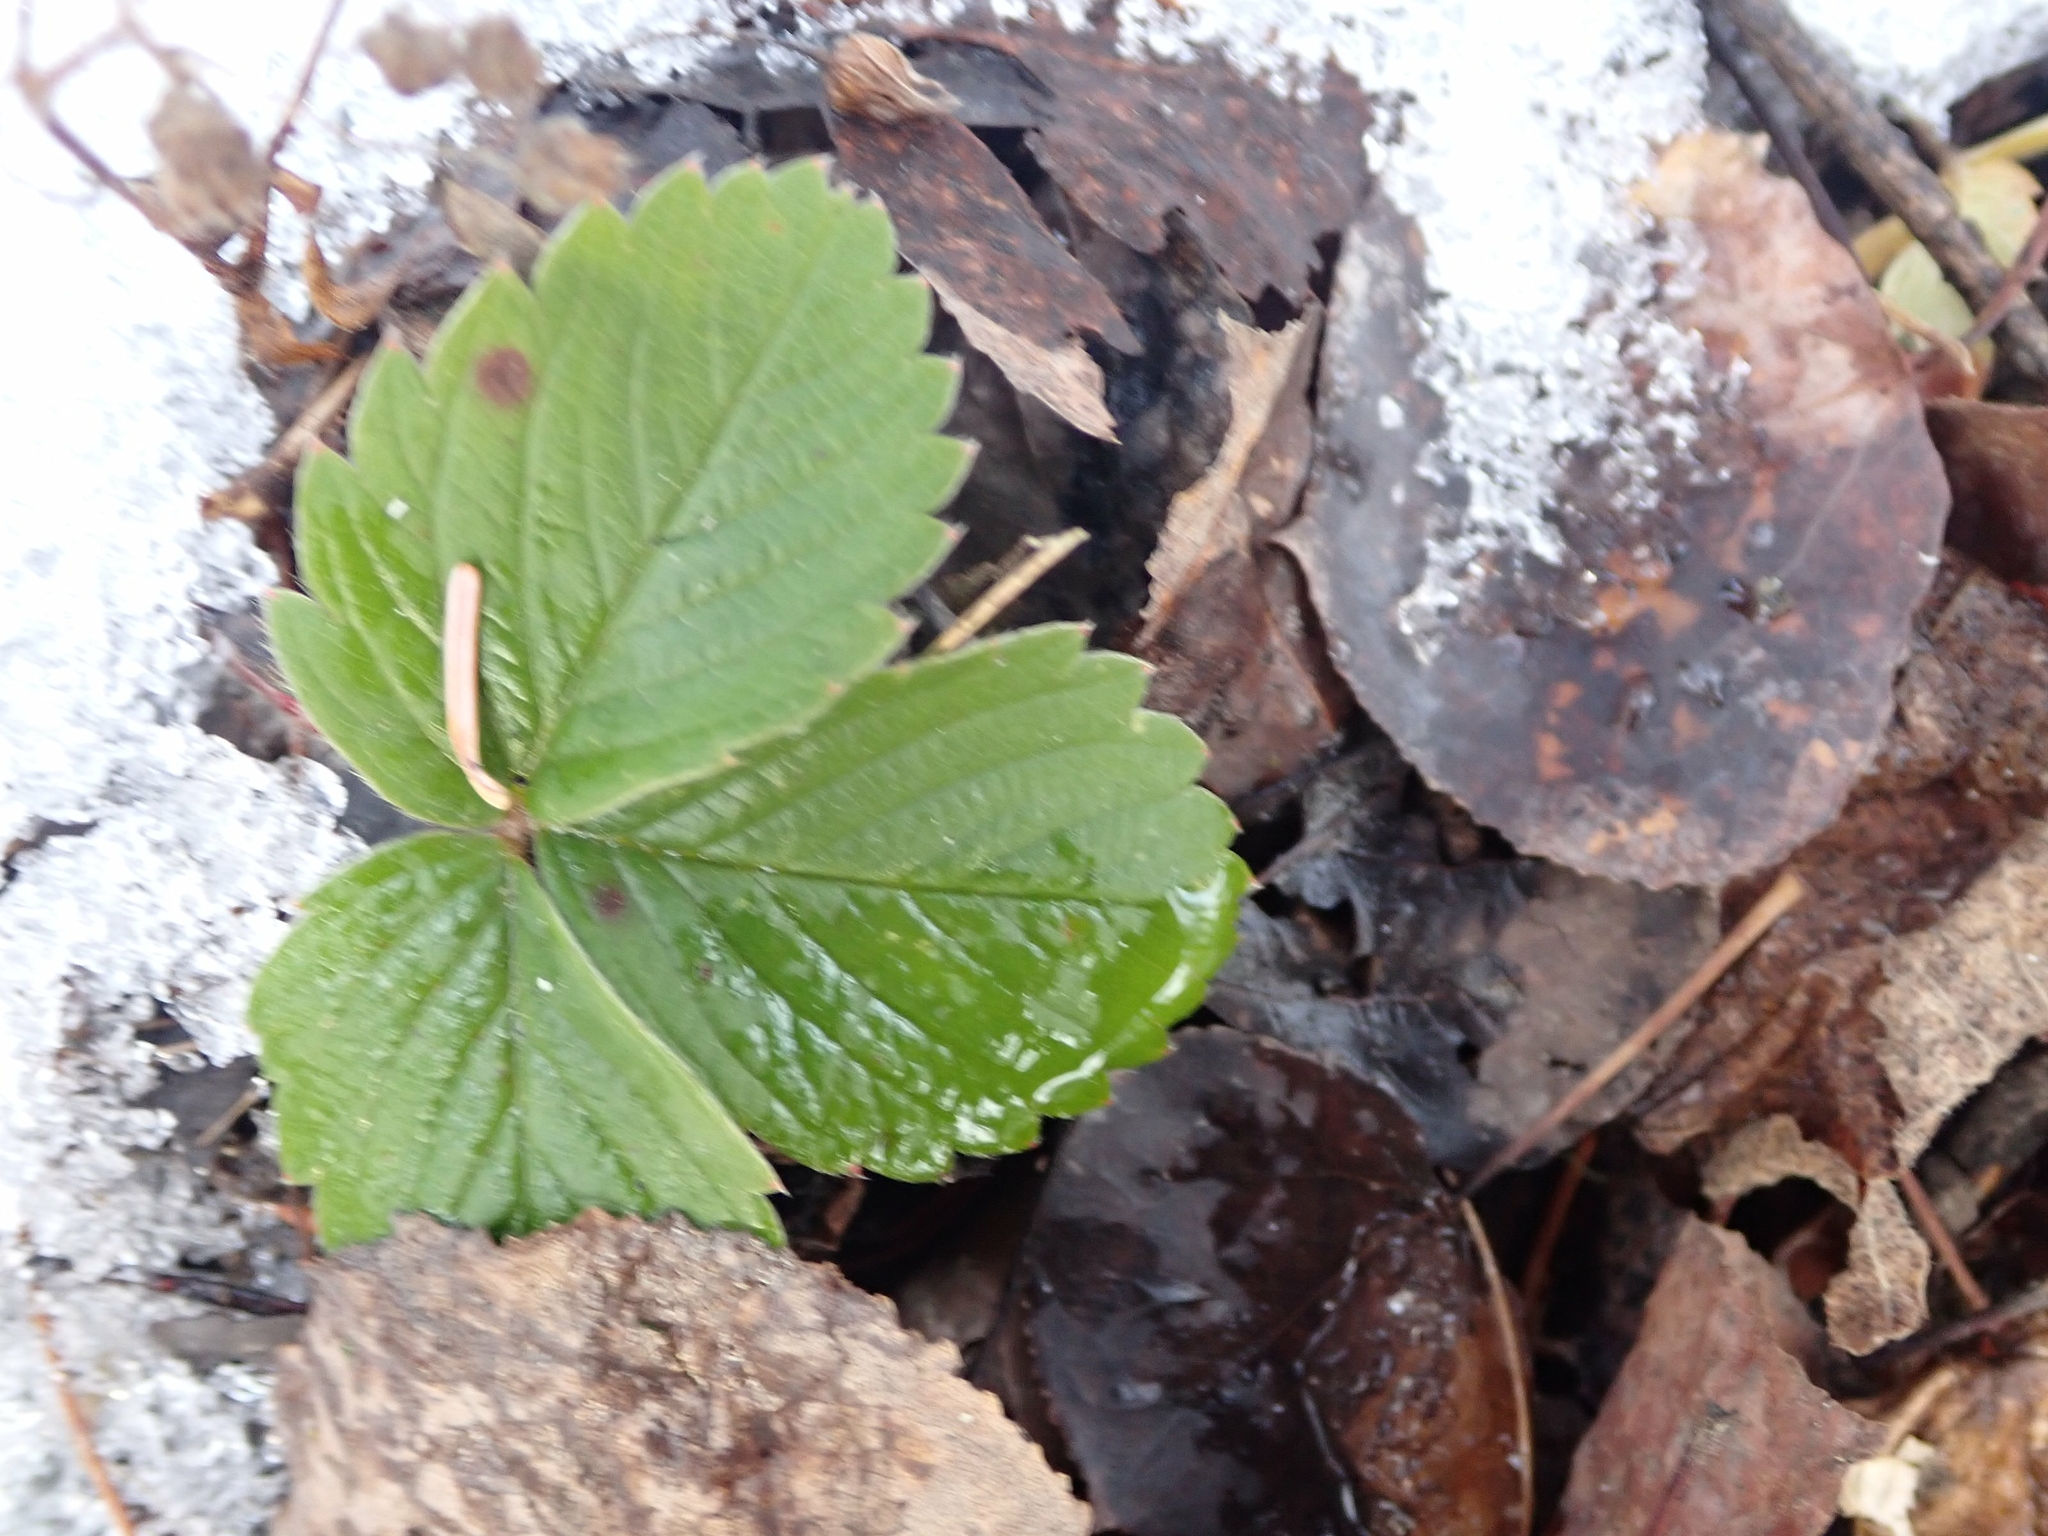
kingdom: Plantae
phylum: Tracheophyta
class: Magnoliopsida
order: Rosales
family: Rosaceae
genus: Fragaria
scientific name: Fragaria virginiana
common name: Thickleaved wild strawberry
